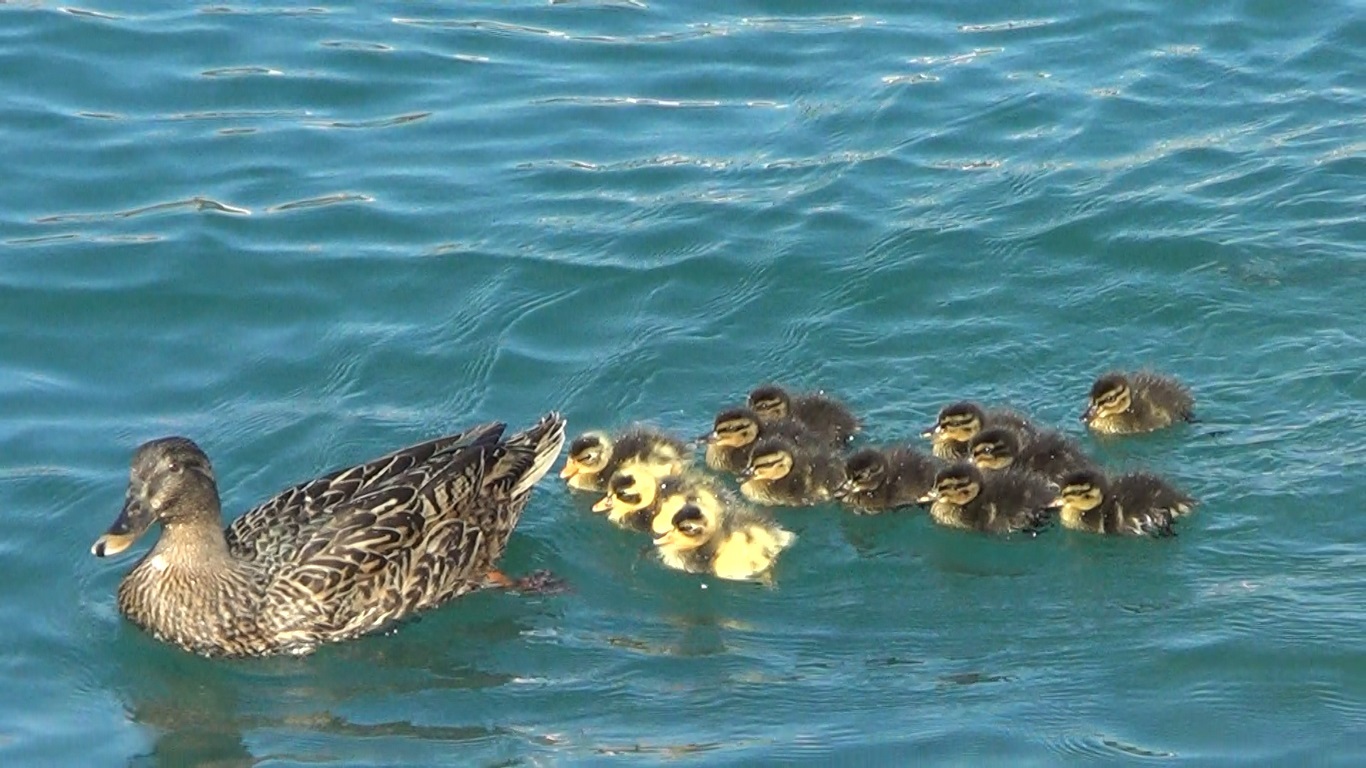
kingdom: Animalia
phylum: Chordata
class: Aves
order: Anseriformes
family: Anatidae
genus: Anas
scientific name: Anas platyrhynchos
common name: Mallard
